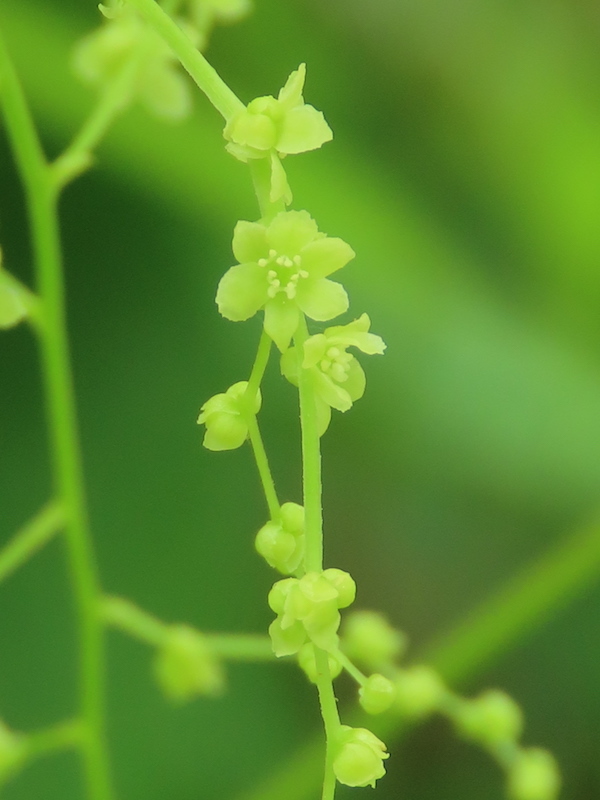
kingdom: Plantae
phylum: Tracheophyta
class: Liliopsida
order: Dioscoreales
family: Dioscoreaceae
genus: Dioscorea
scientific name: Dioscorea villosa
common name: Wild yam
